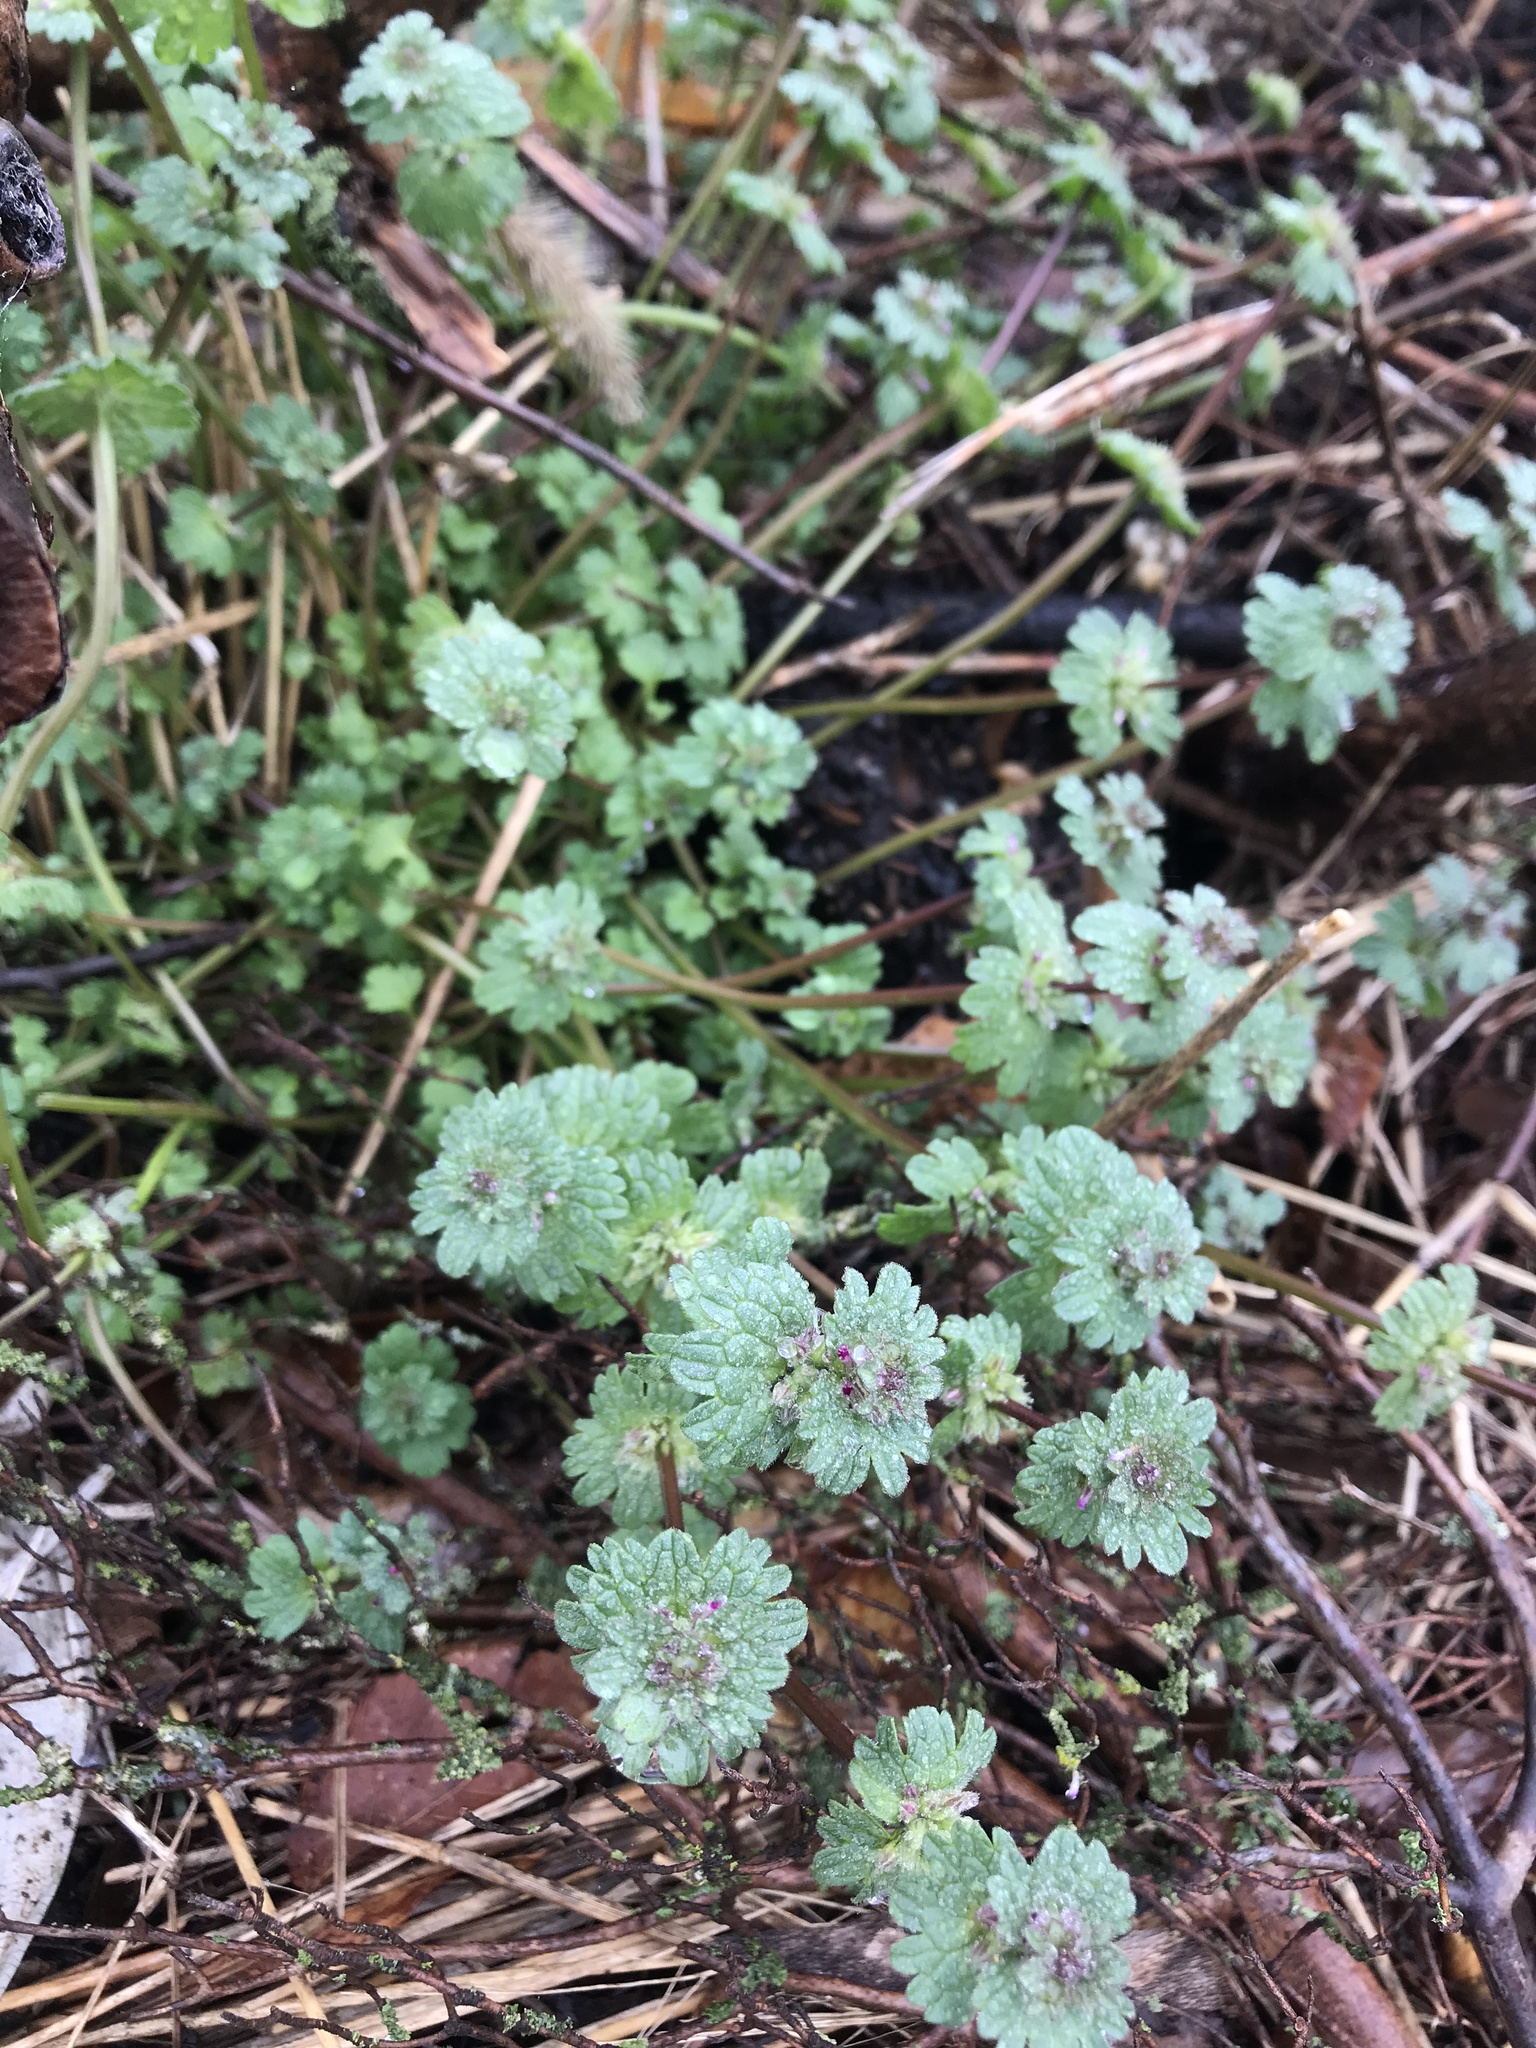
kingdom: Plantae
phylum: Tracheophyta
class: Magnoliopsida
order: Lamiales
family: Lamiaceae
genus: Lamium
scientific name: Lamium amplexicaule
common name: Henbit dead-nettle
